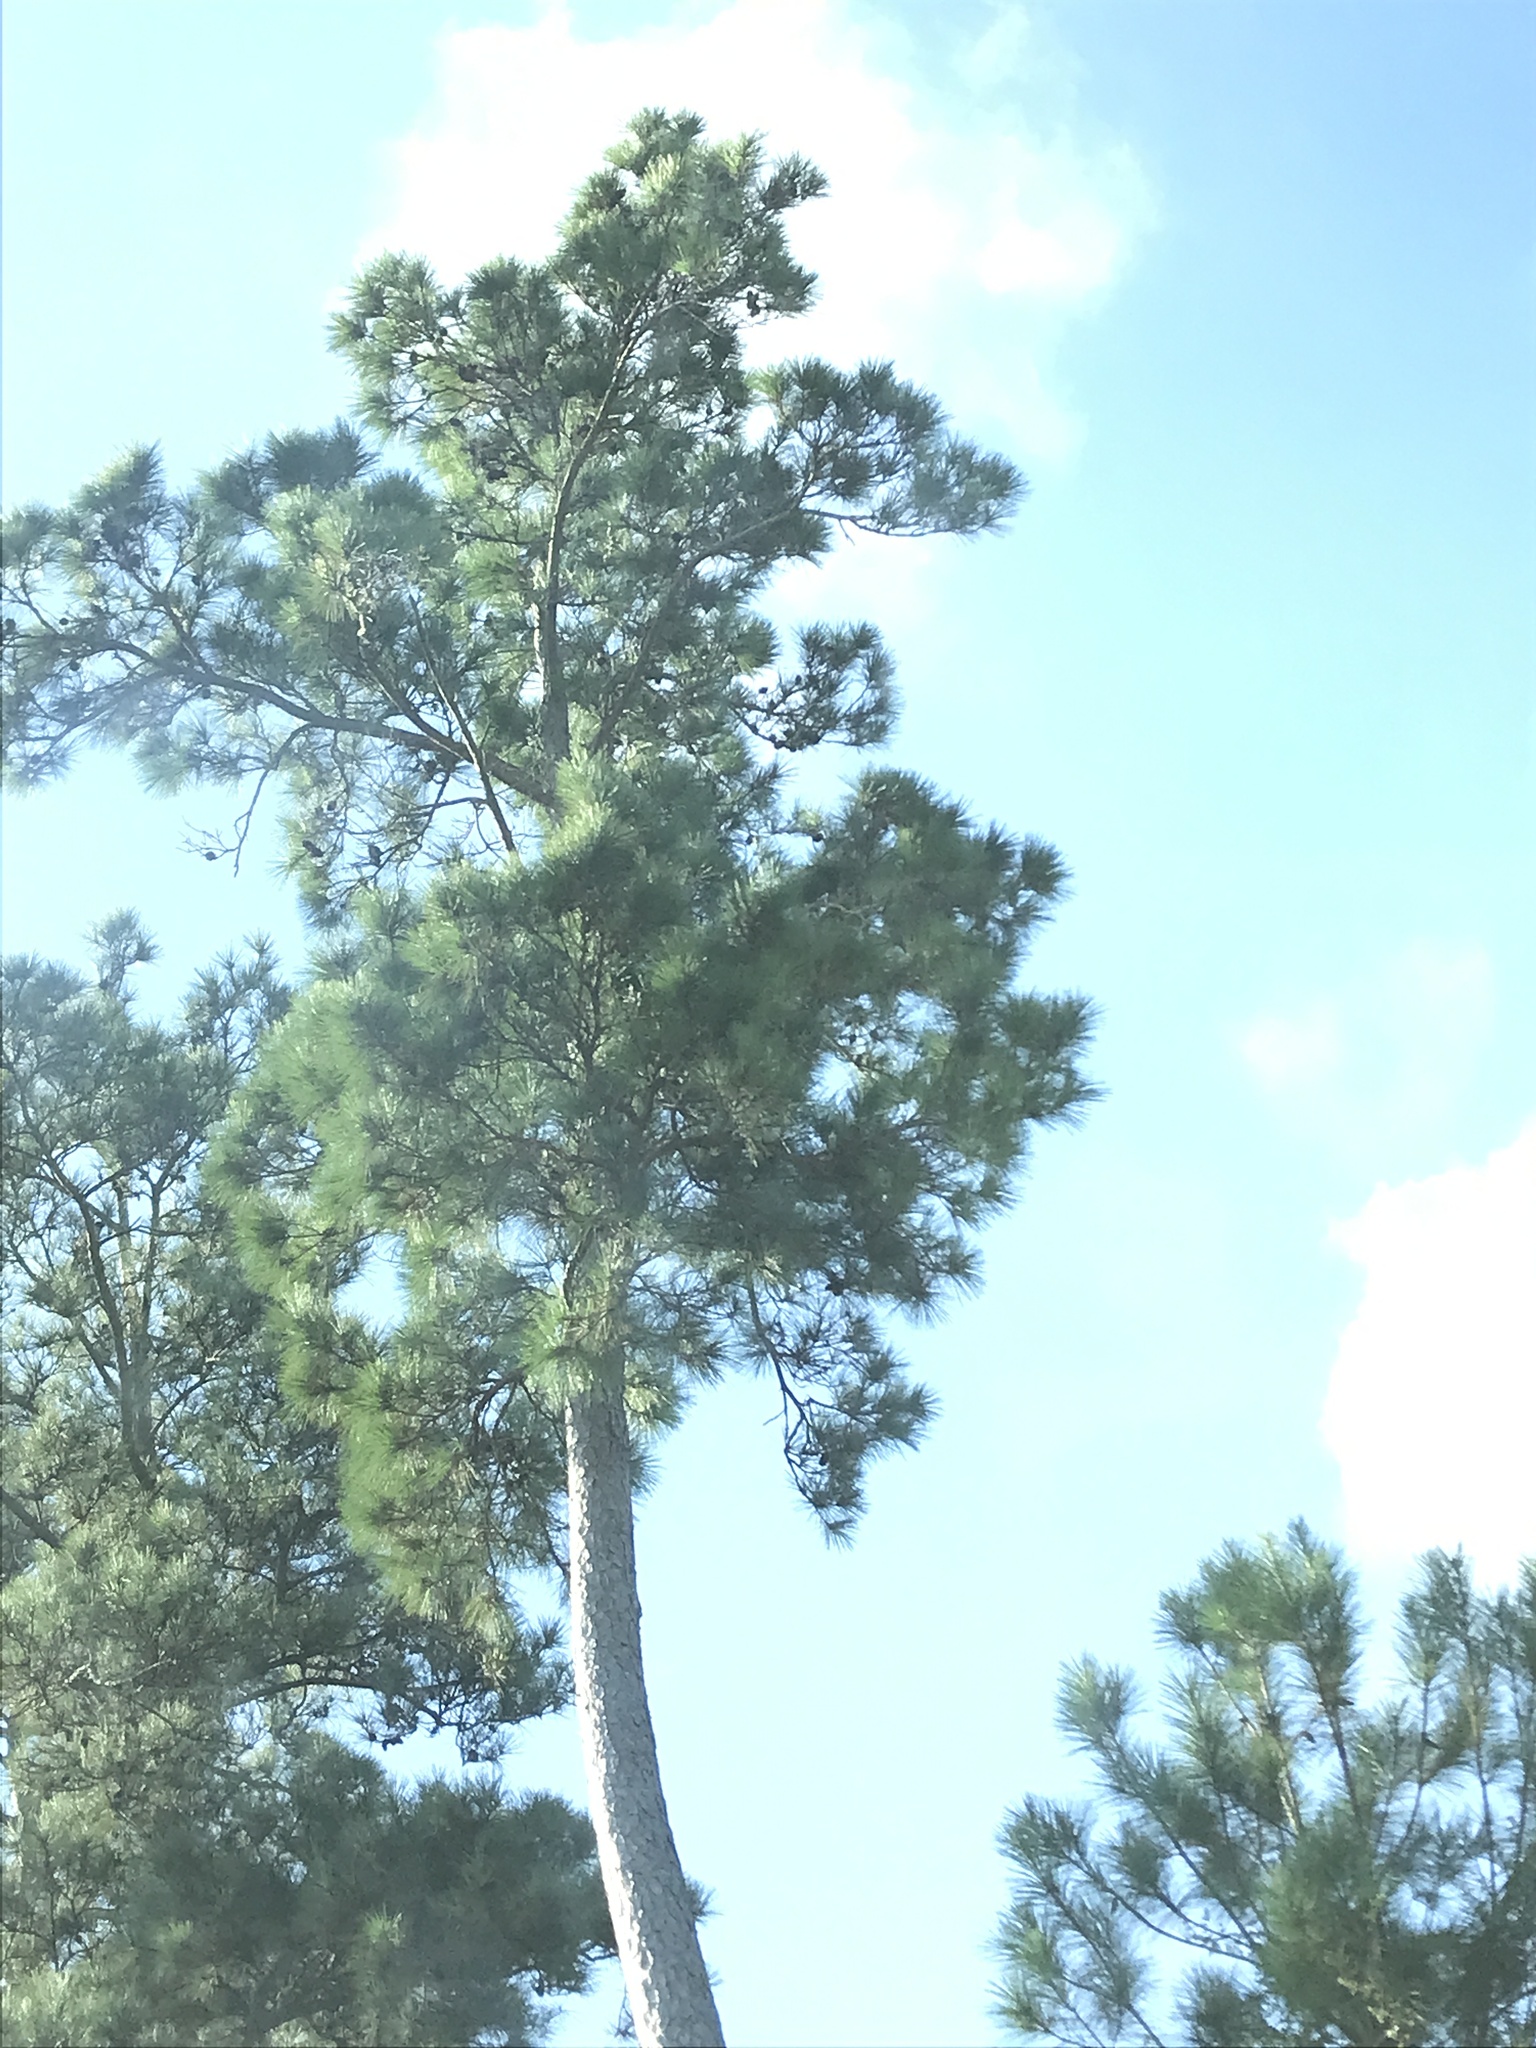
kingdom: Plantae
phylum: Tracheophyta
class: Pinopsida
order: Pinales
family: Pinaceae
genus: Pinus
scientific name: Pinus taeda
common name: Loblolly pine
